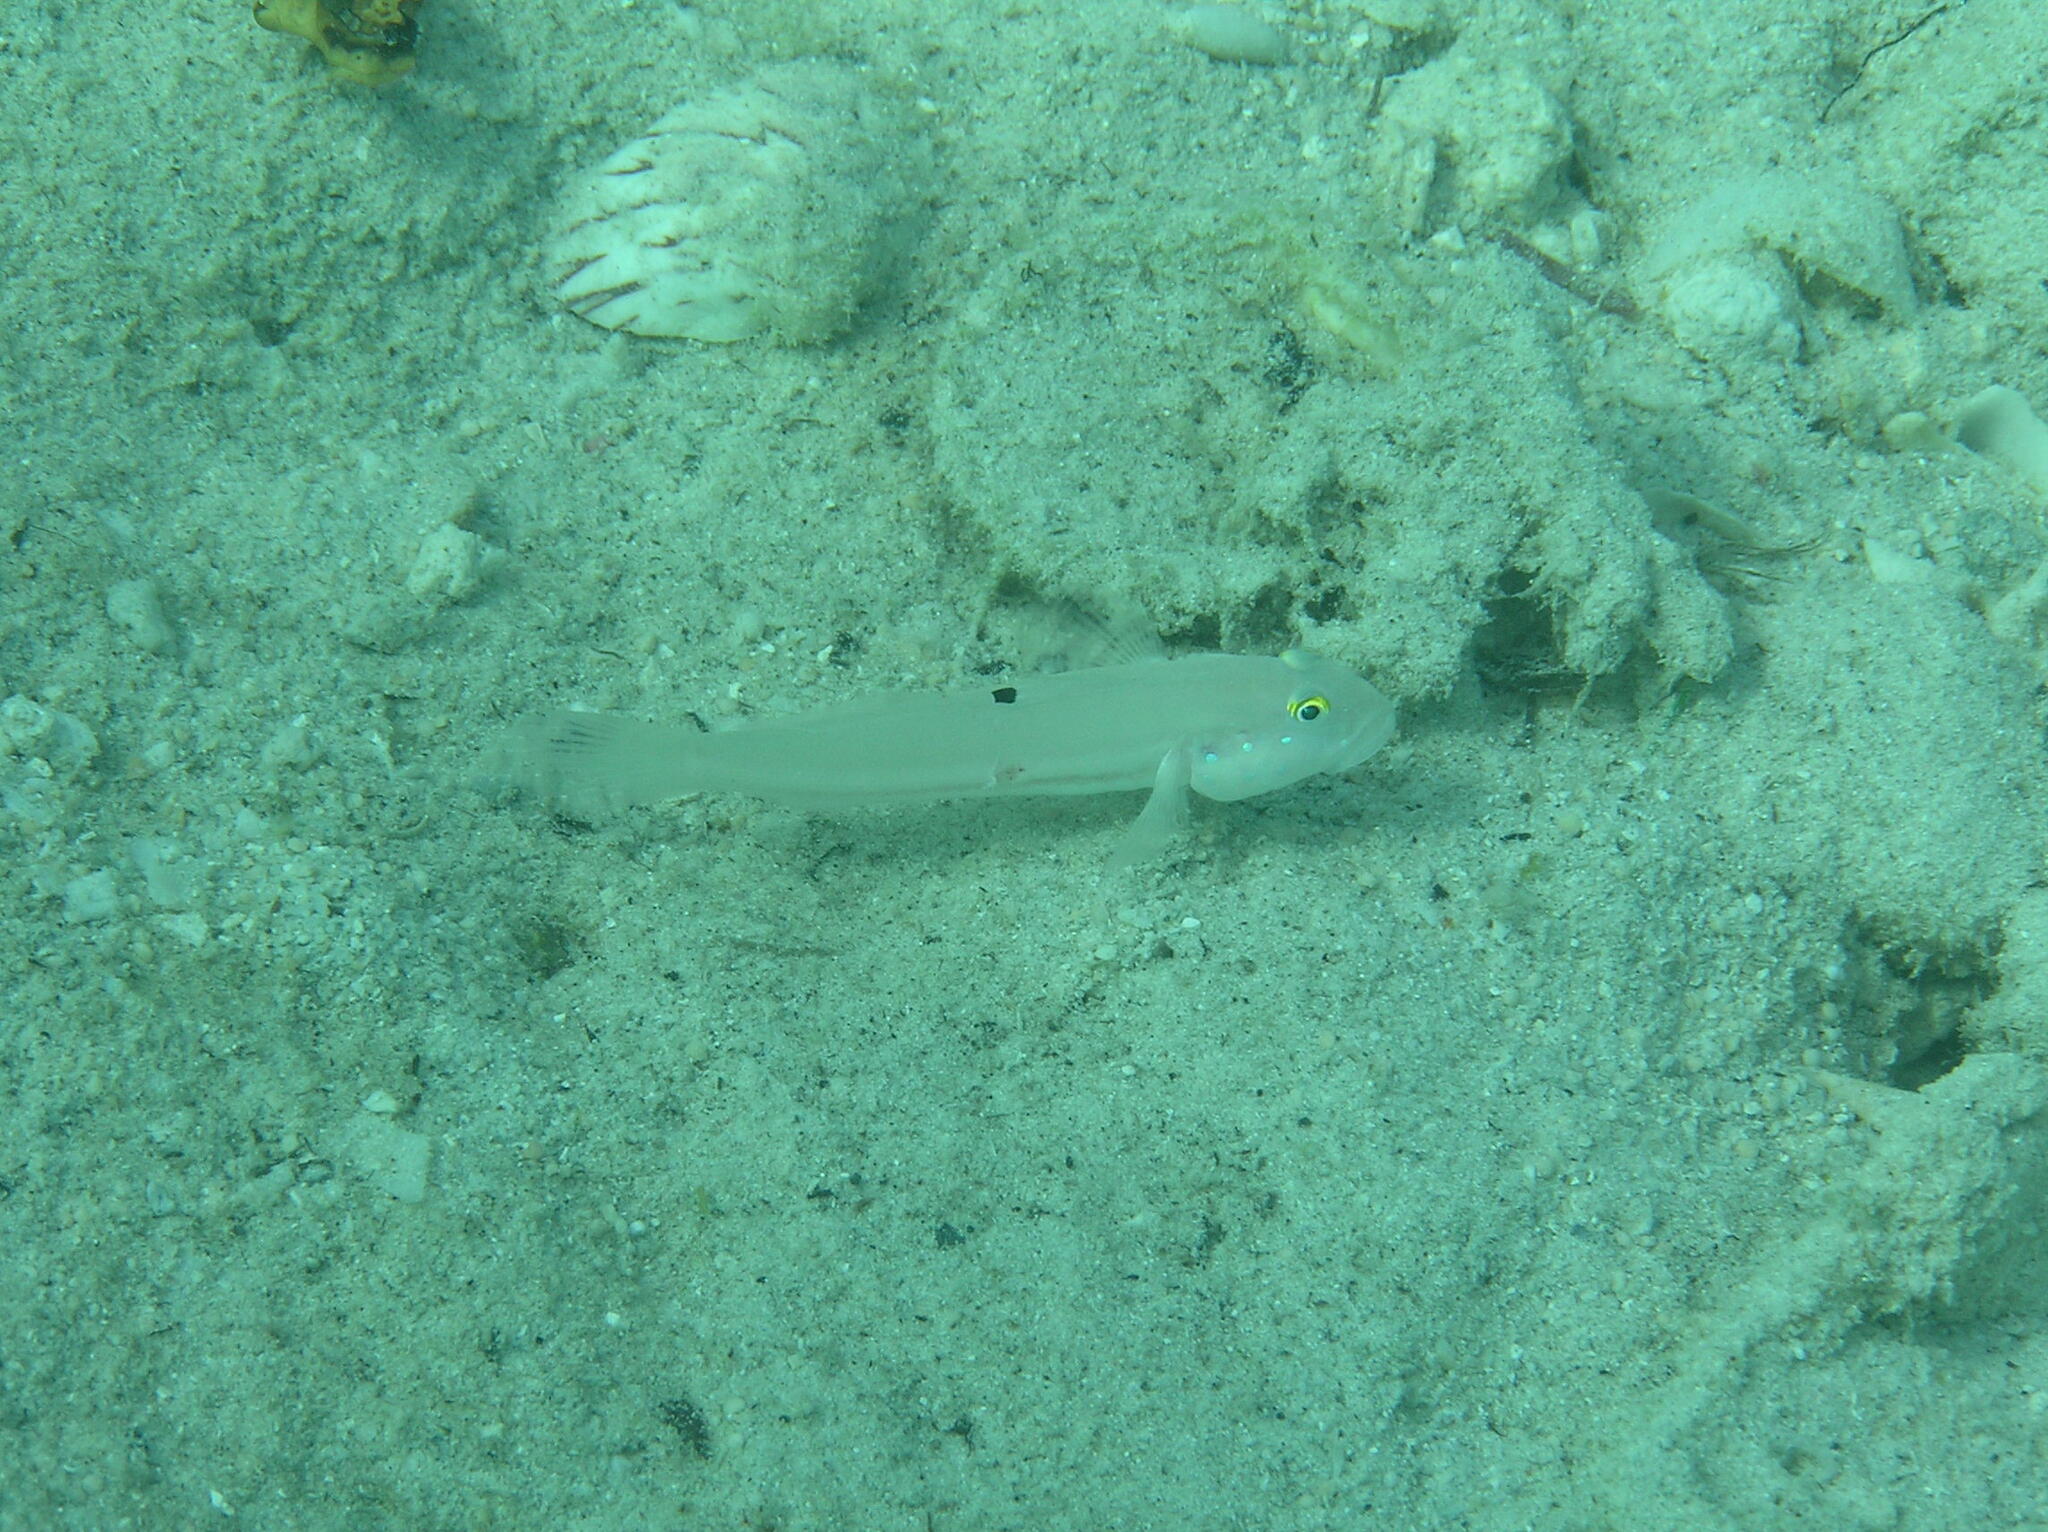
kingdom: Animalia
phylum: Chordata
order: Perciformes
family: Gobiidae
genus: Valenciennea
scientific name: Valenciennea sexguttata
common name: Sixspot goby
